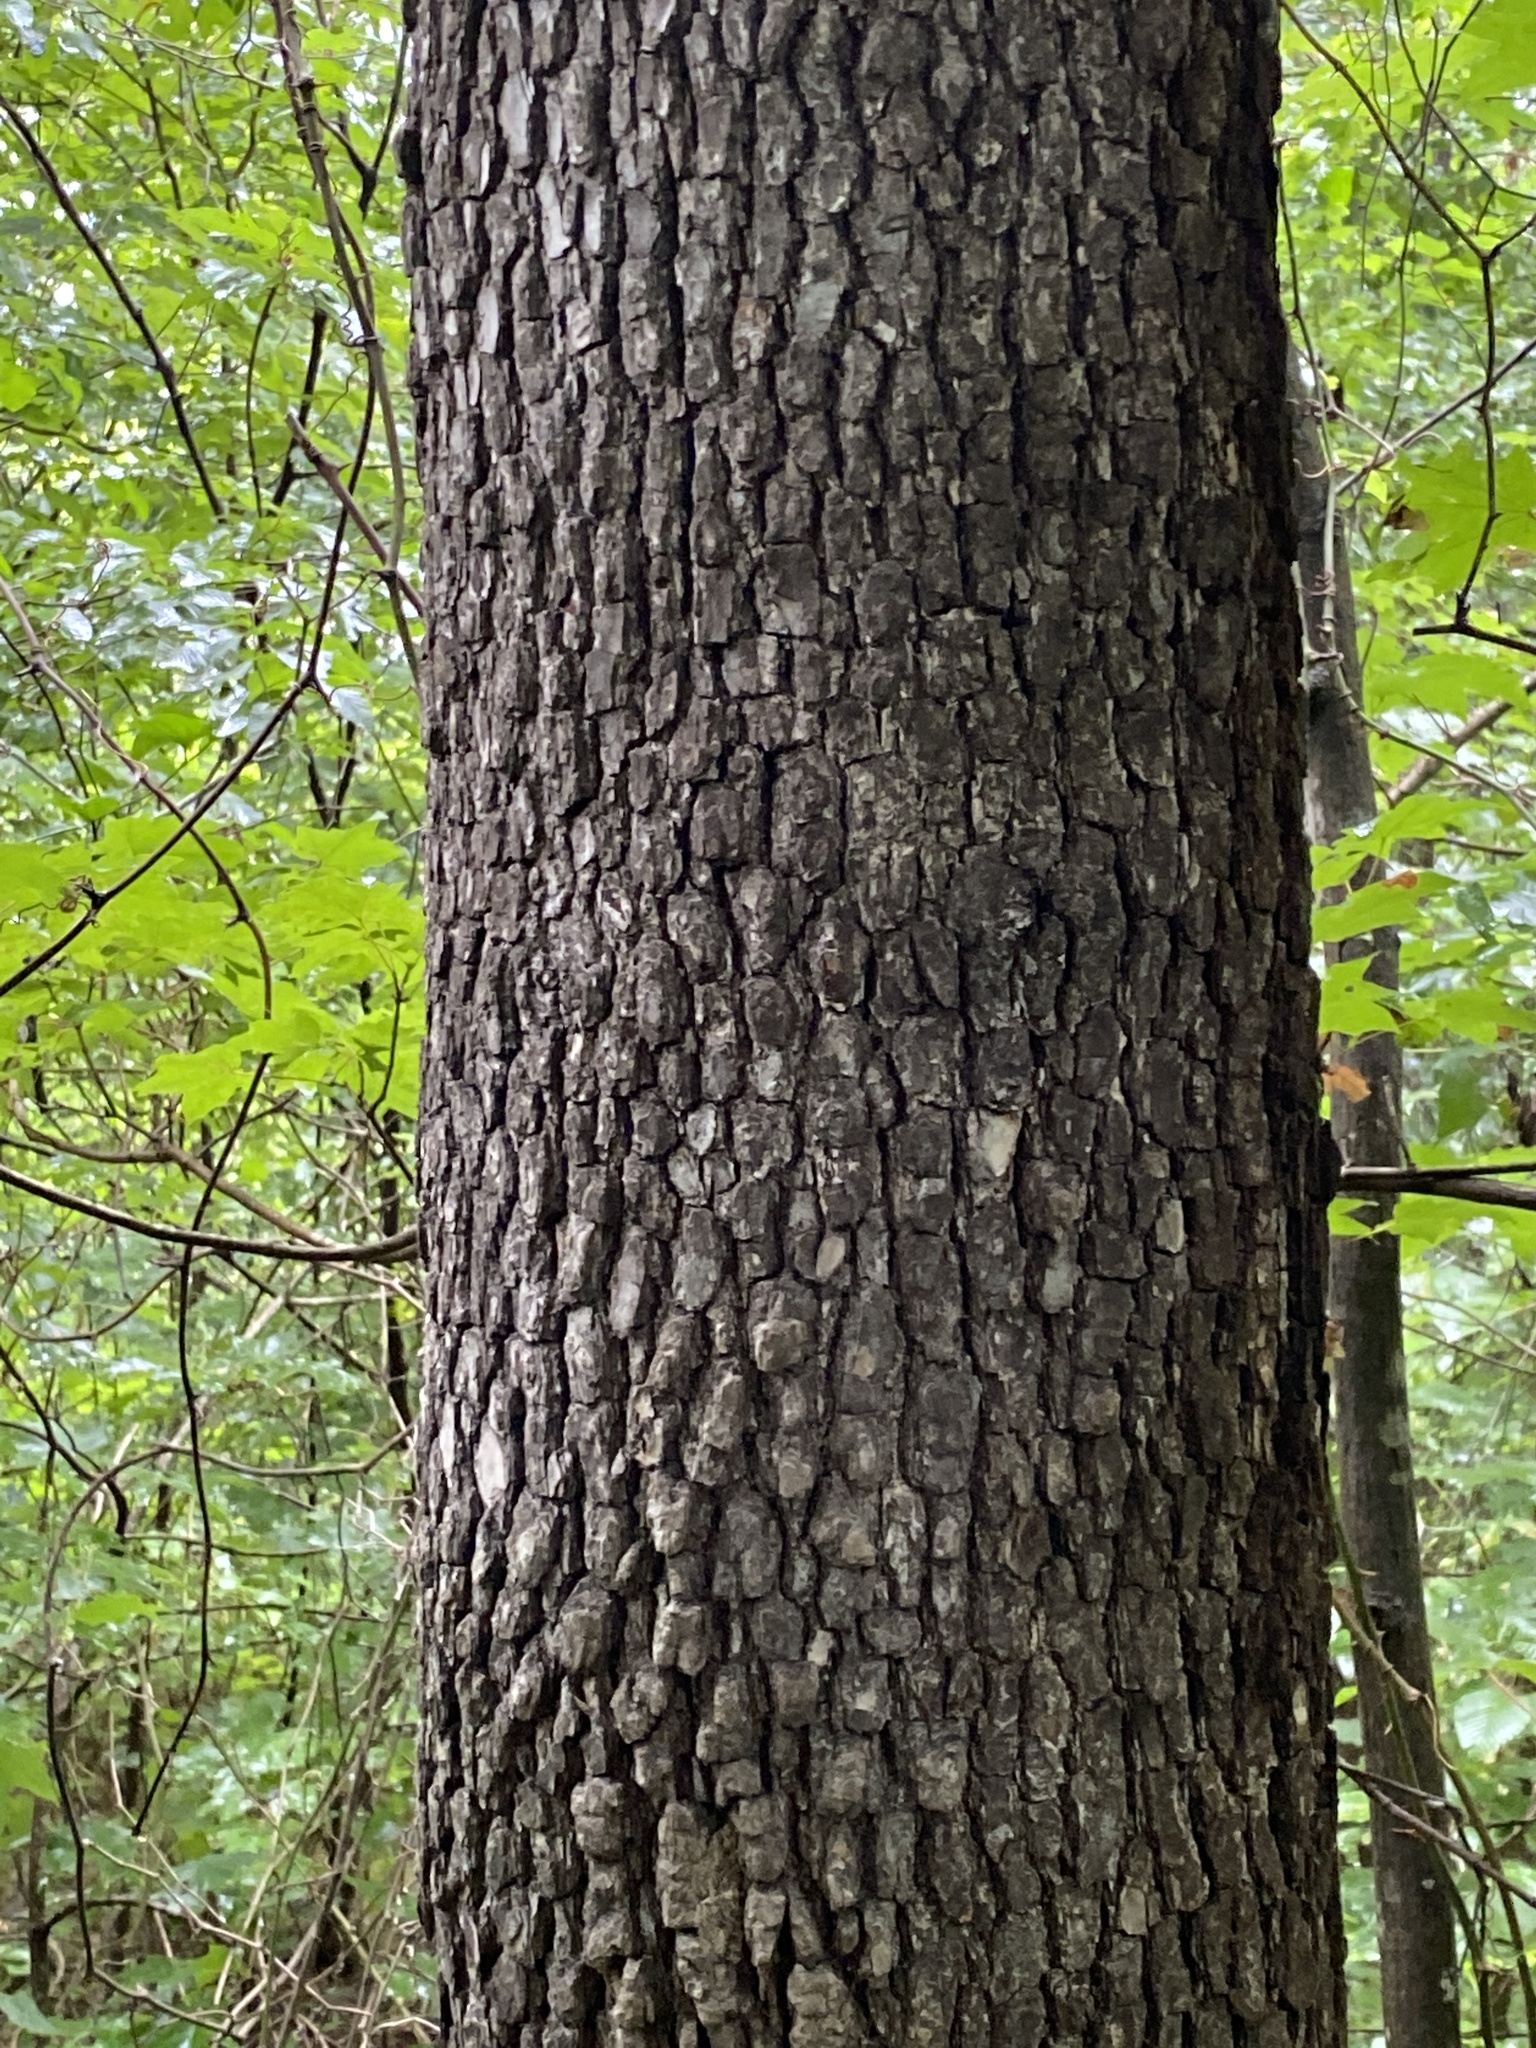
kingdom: Plantae
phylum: Tracheophyta
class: Magnoliopsida
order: Ericales
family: Ebenaceae
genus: Diospyros
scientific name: Diospyros virginiana
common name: Persimmon
